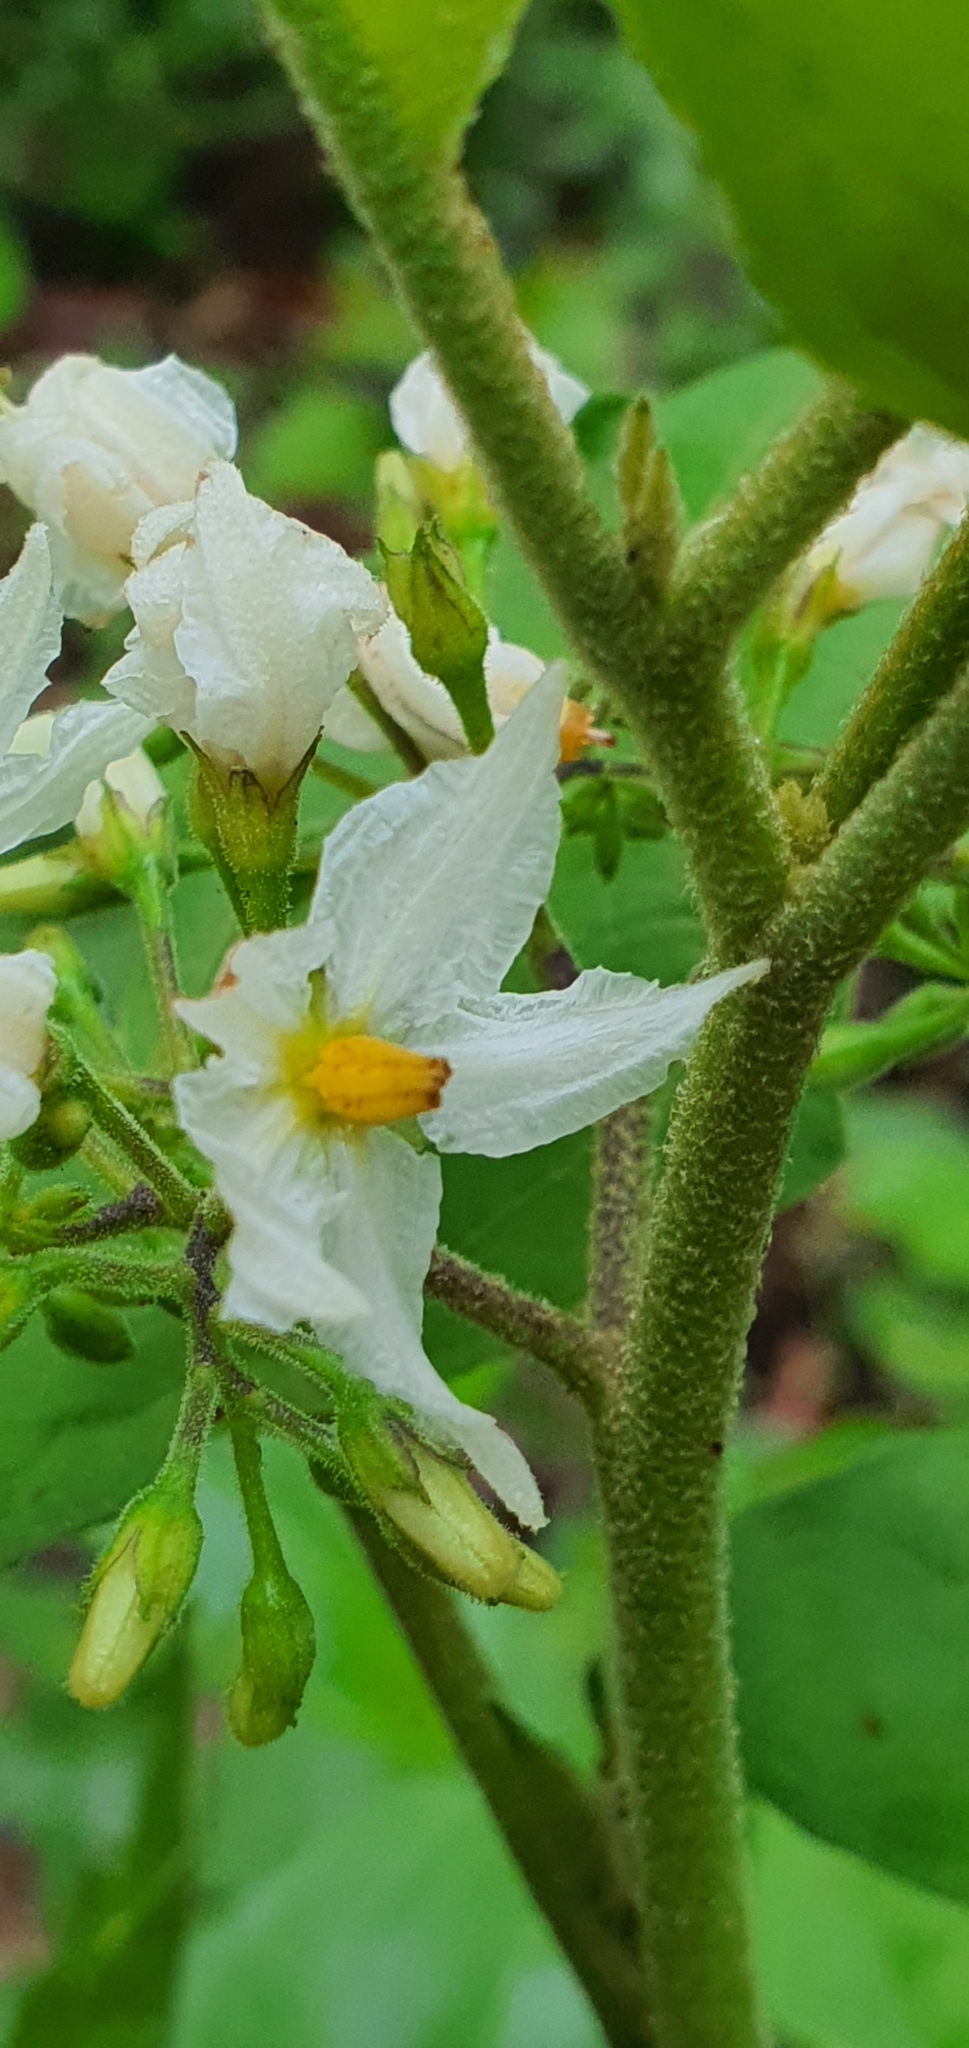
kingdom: Plantae
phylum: Tracheophyta
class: Magnoliopsida
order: Solanales
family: Solanaceae
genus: Solanum
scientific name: Solanum torvum
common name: Turkey berry
